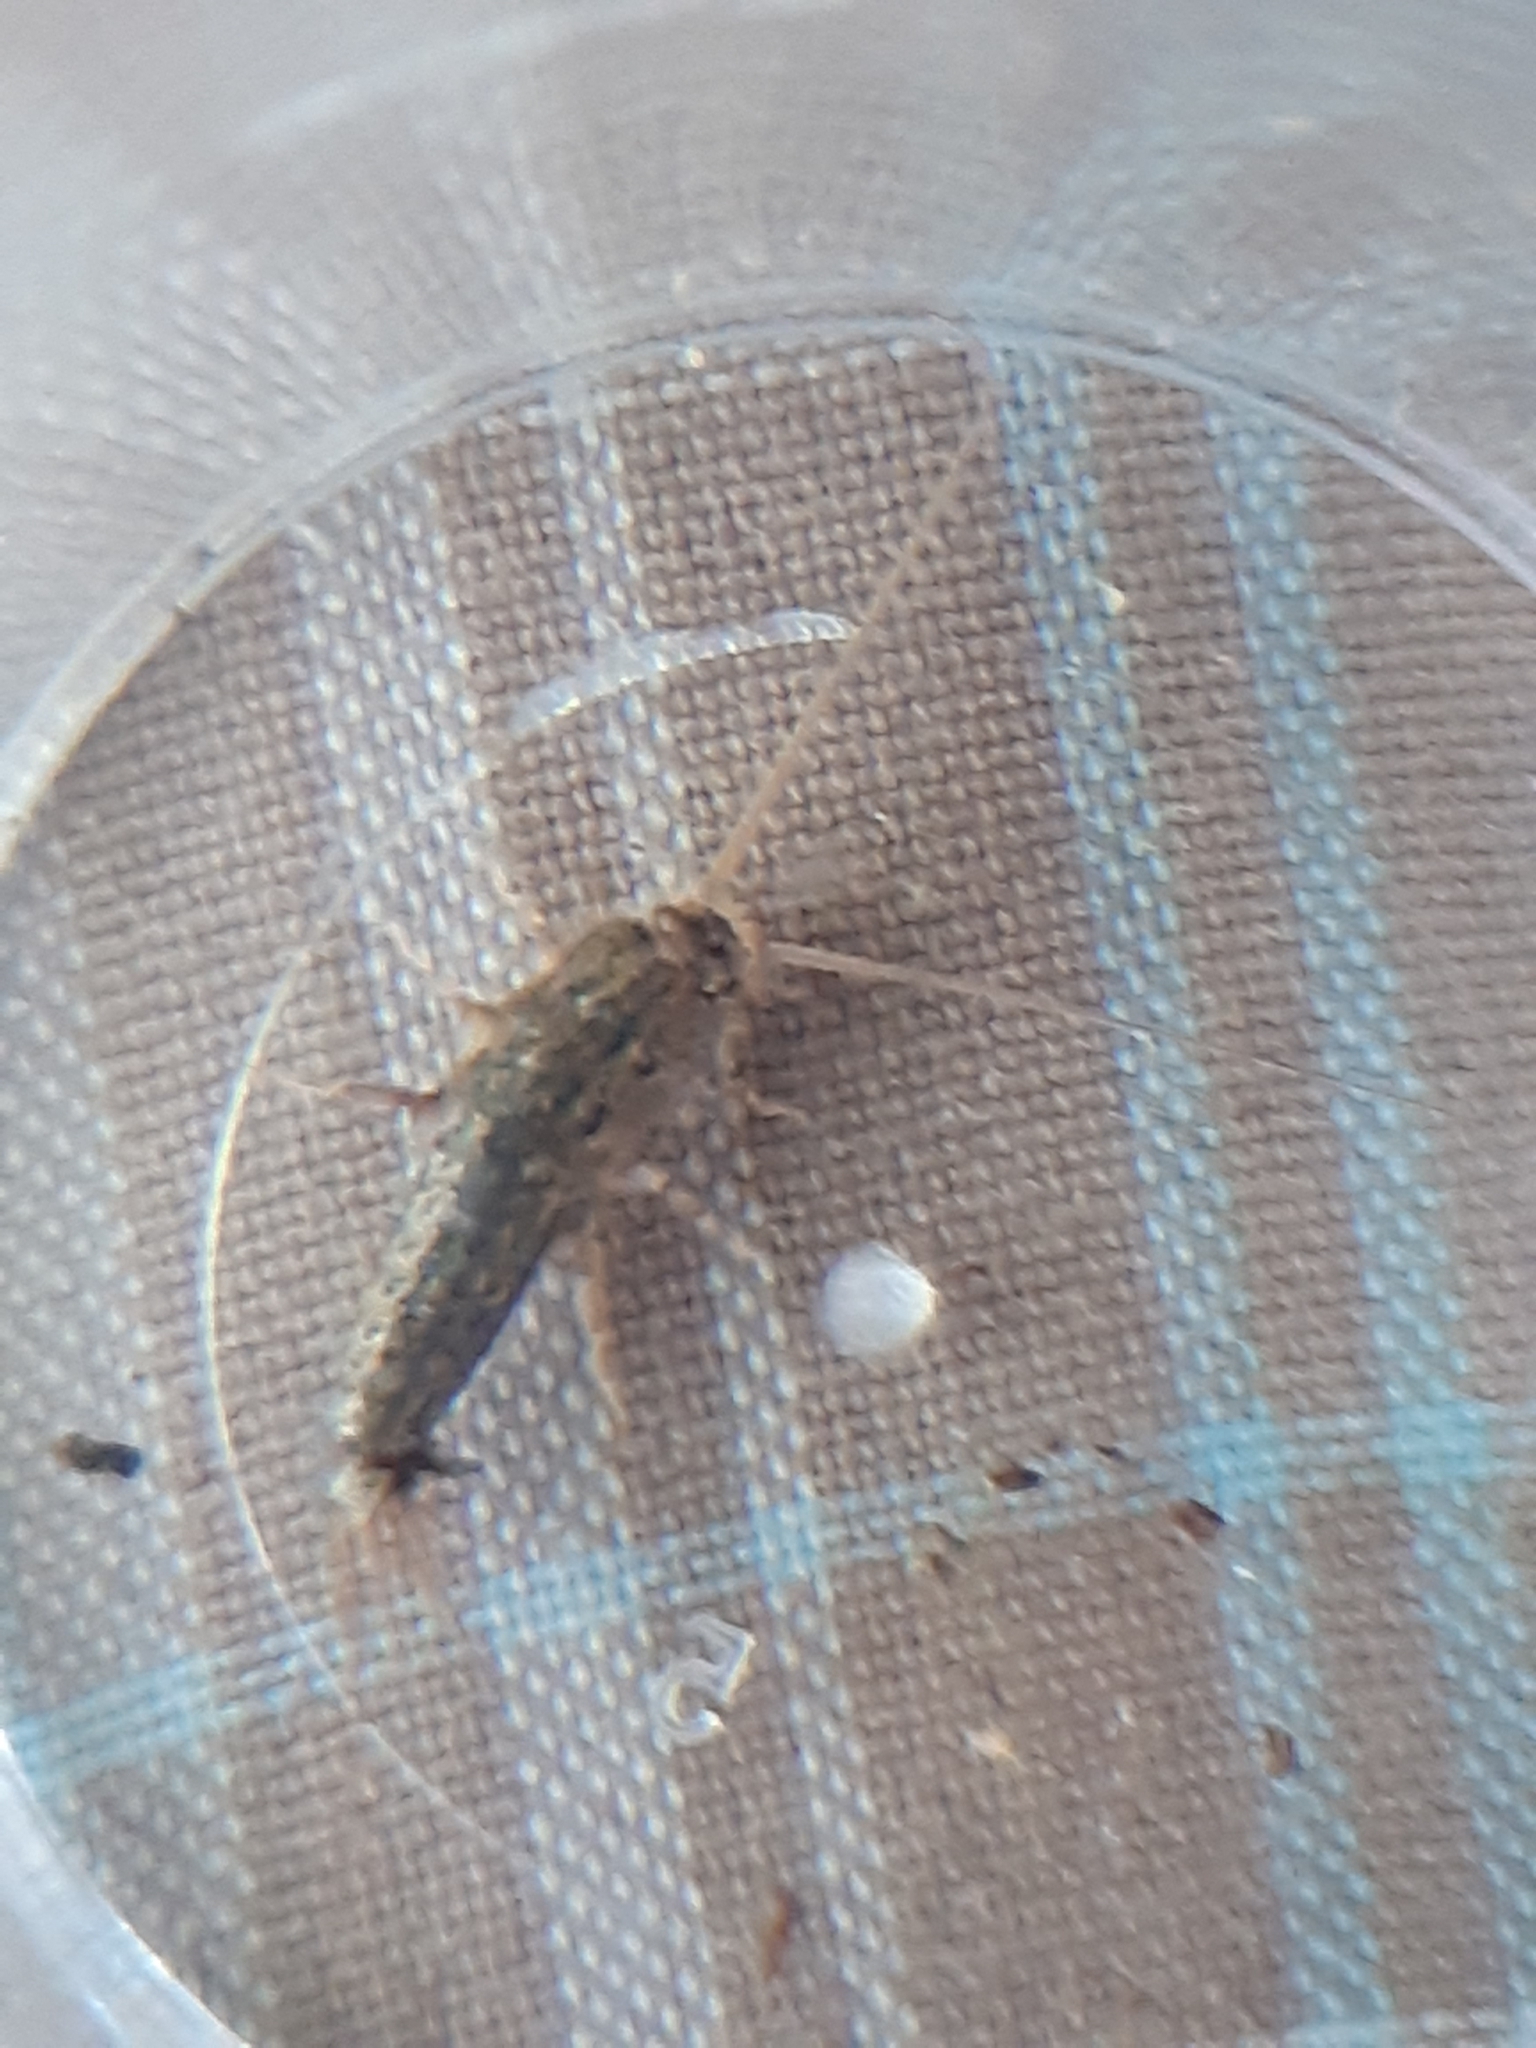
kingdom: Animalia
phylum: Arthropoda
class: Insecta
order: Zygentoma
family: Lepismatidae
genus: Ctenolepisma
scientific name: Ctenolepisma lineata
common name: Four-lined silverfish
